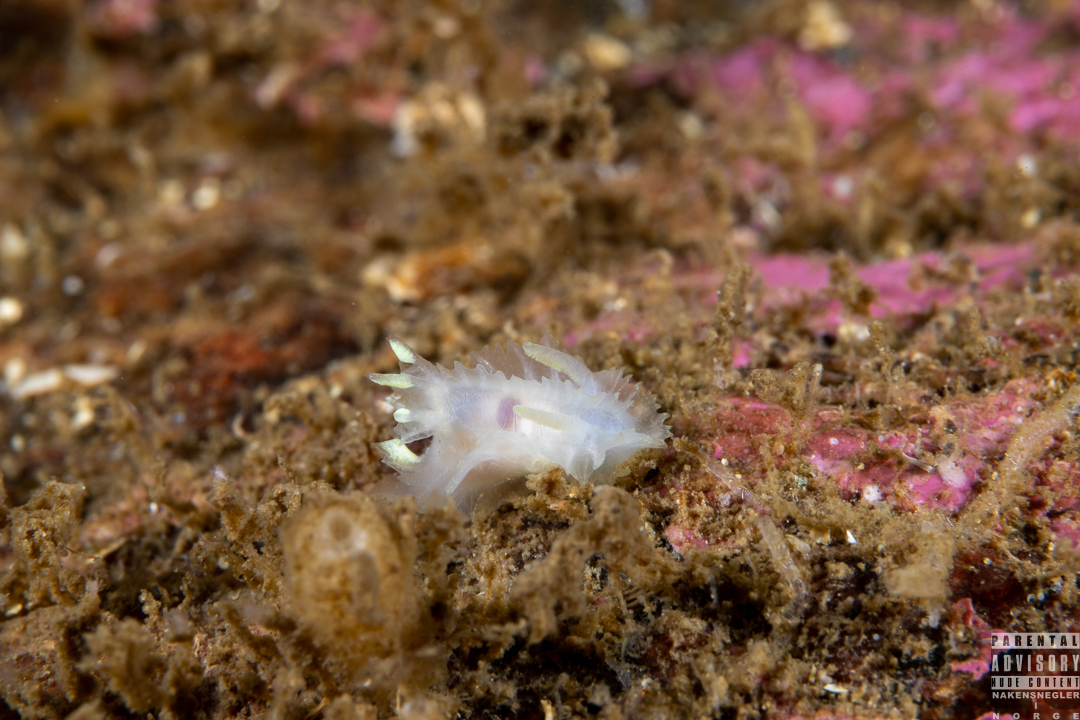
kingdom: Animalia
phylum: Mollusca
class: Gastropoda
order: Nudibranchia
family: Goniodorididae
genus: Lophodoris
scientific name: Lophodoris danielsseni
